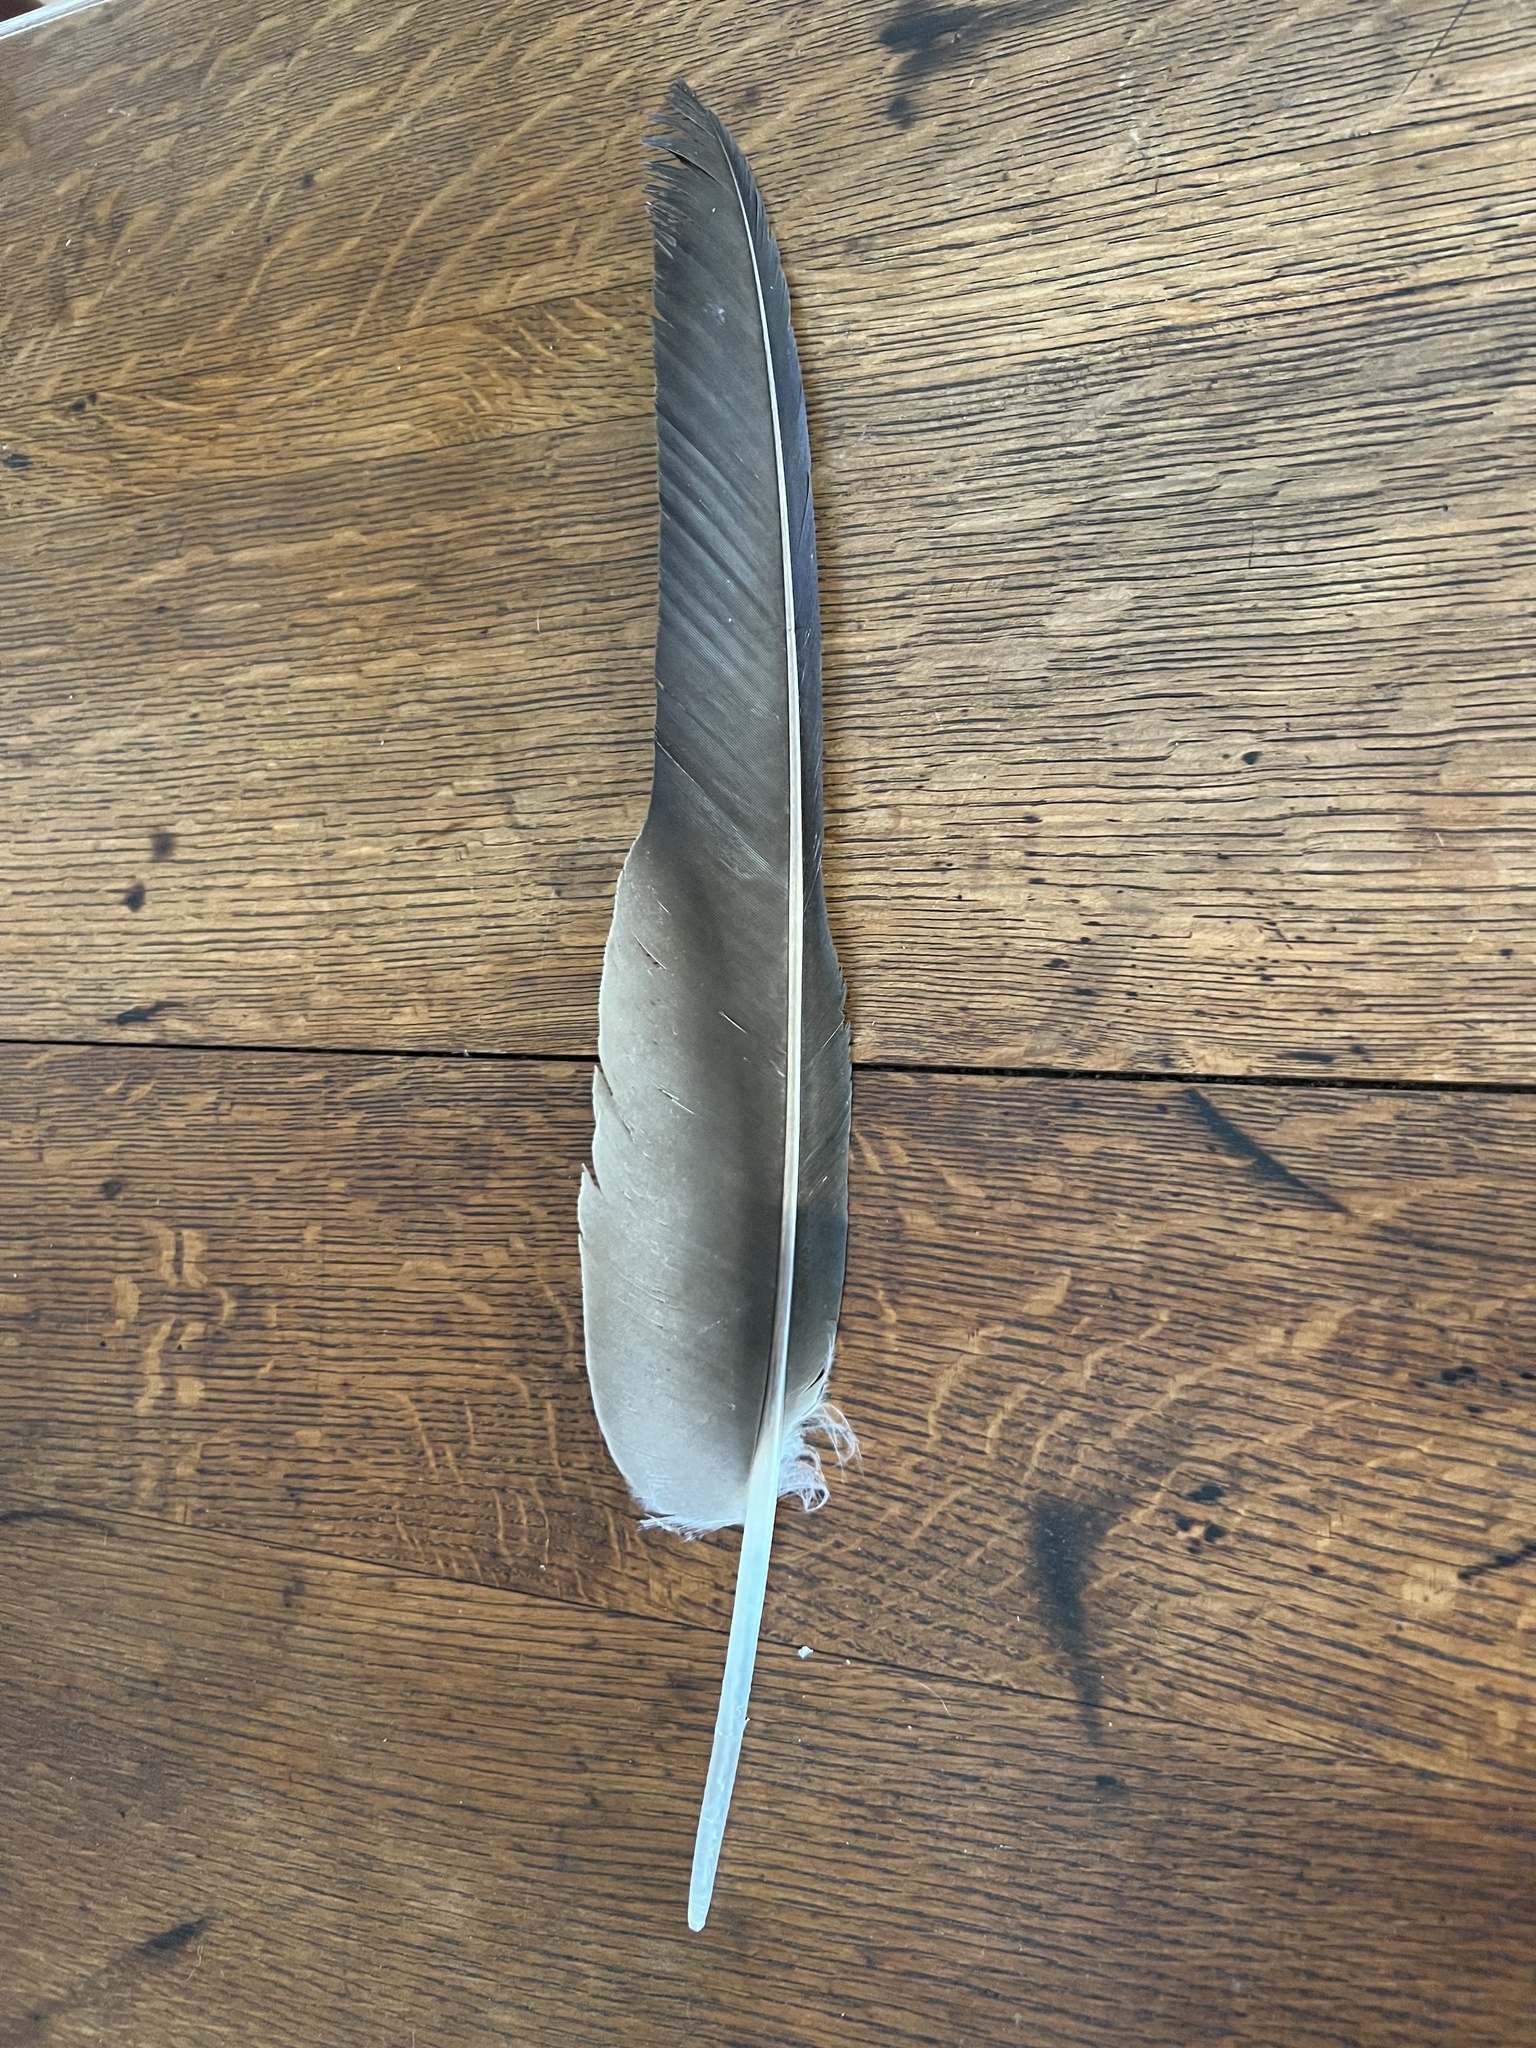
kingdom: Animalia
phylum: Chordata
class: Aves
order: Accipitriformes
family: Cathartidae
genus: Cathartes
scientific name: Cathartes aura
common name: Turkey vulture
